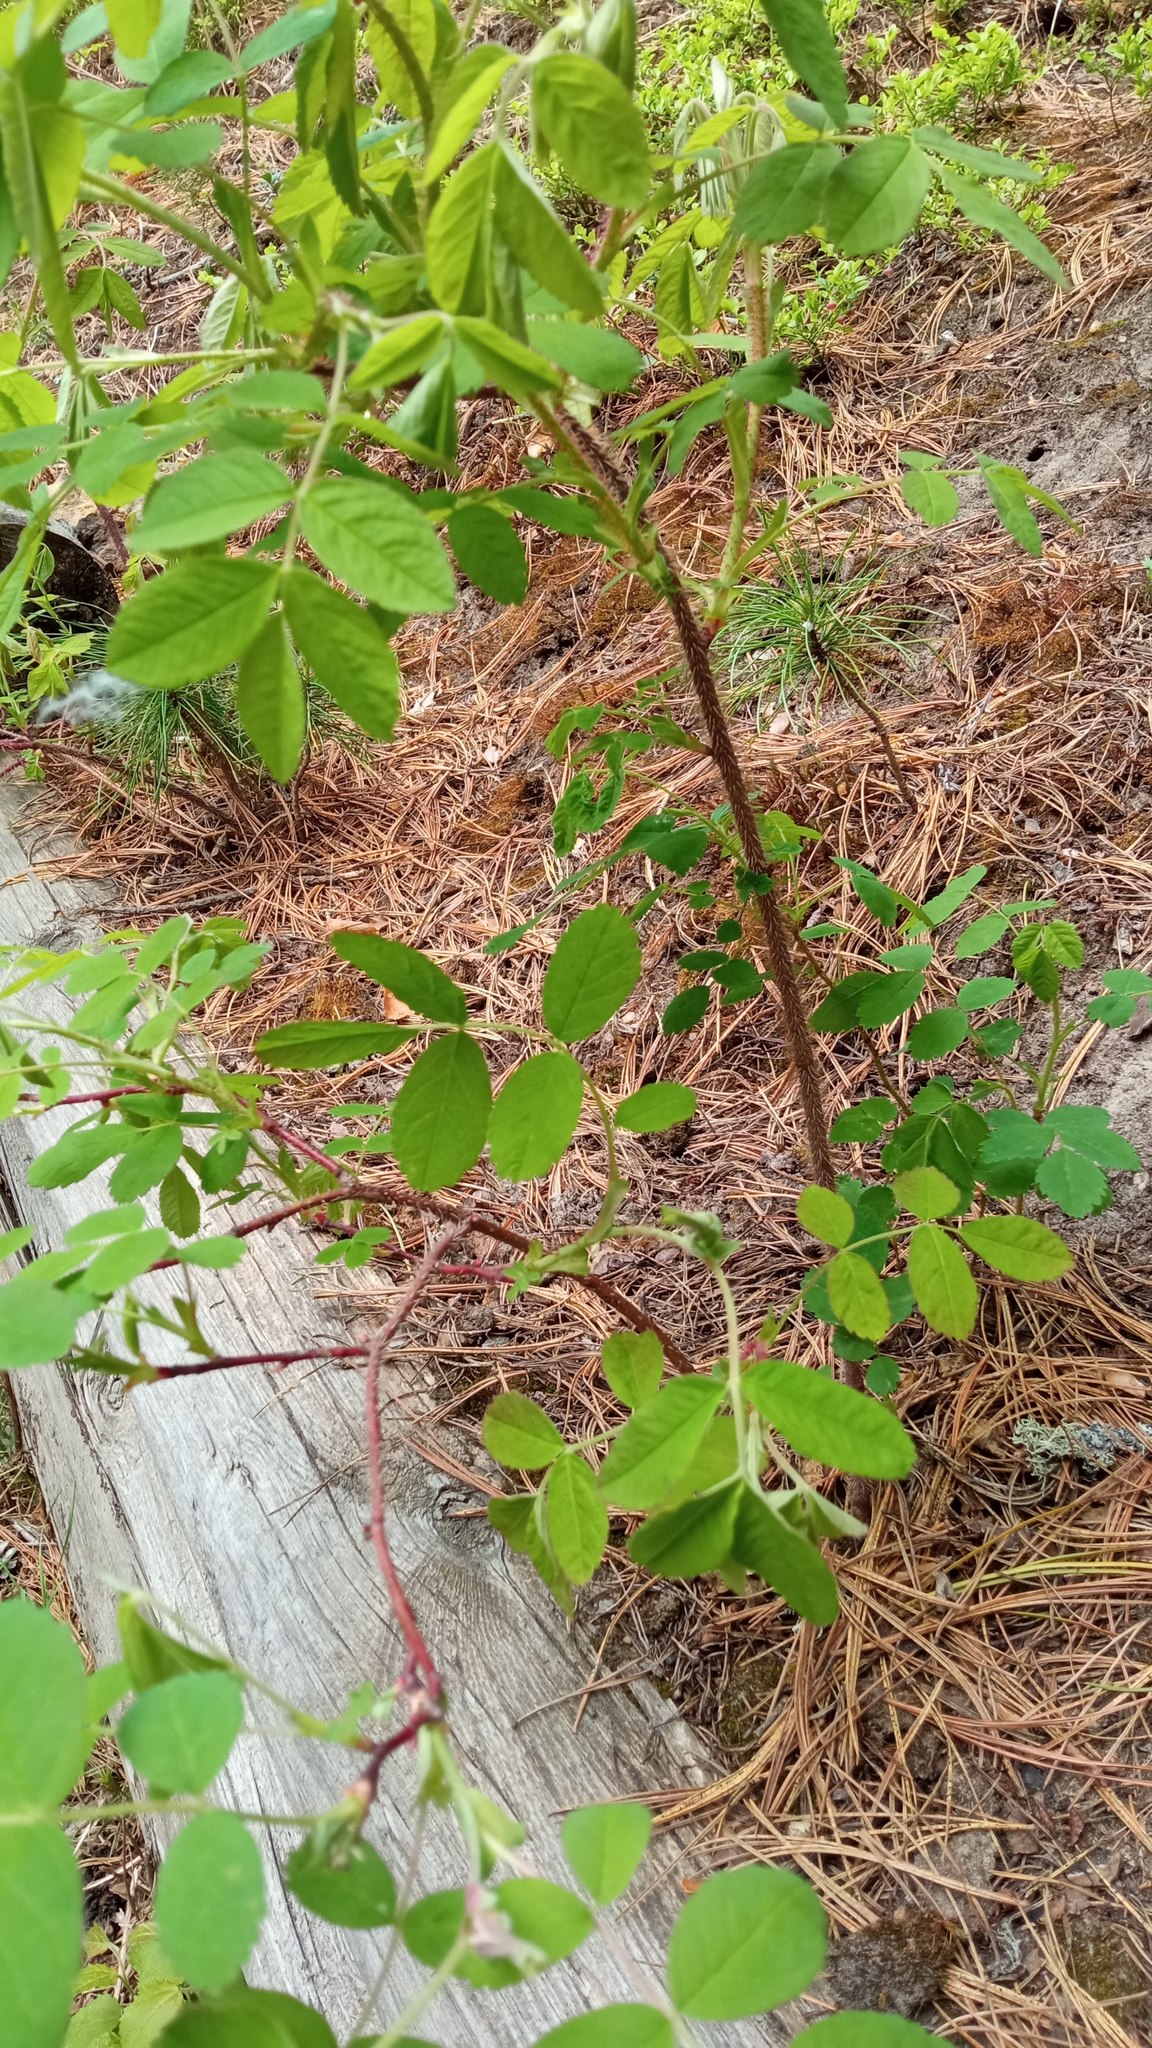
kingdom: Plantae
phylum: Tracheophyta
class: Magnoliopsida
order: Rosales
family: Rosaceae
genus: Rosa
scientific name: Rosa acicularis
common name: Prickly rose
